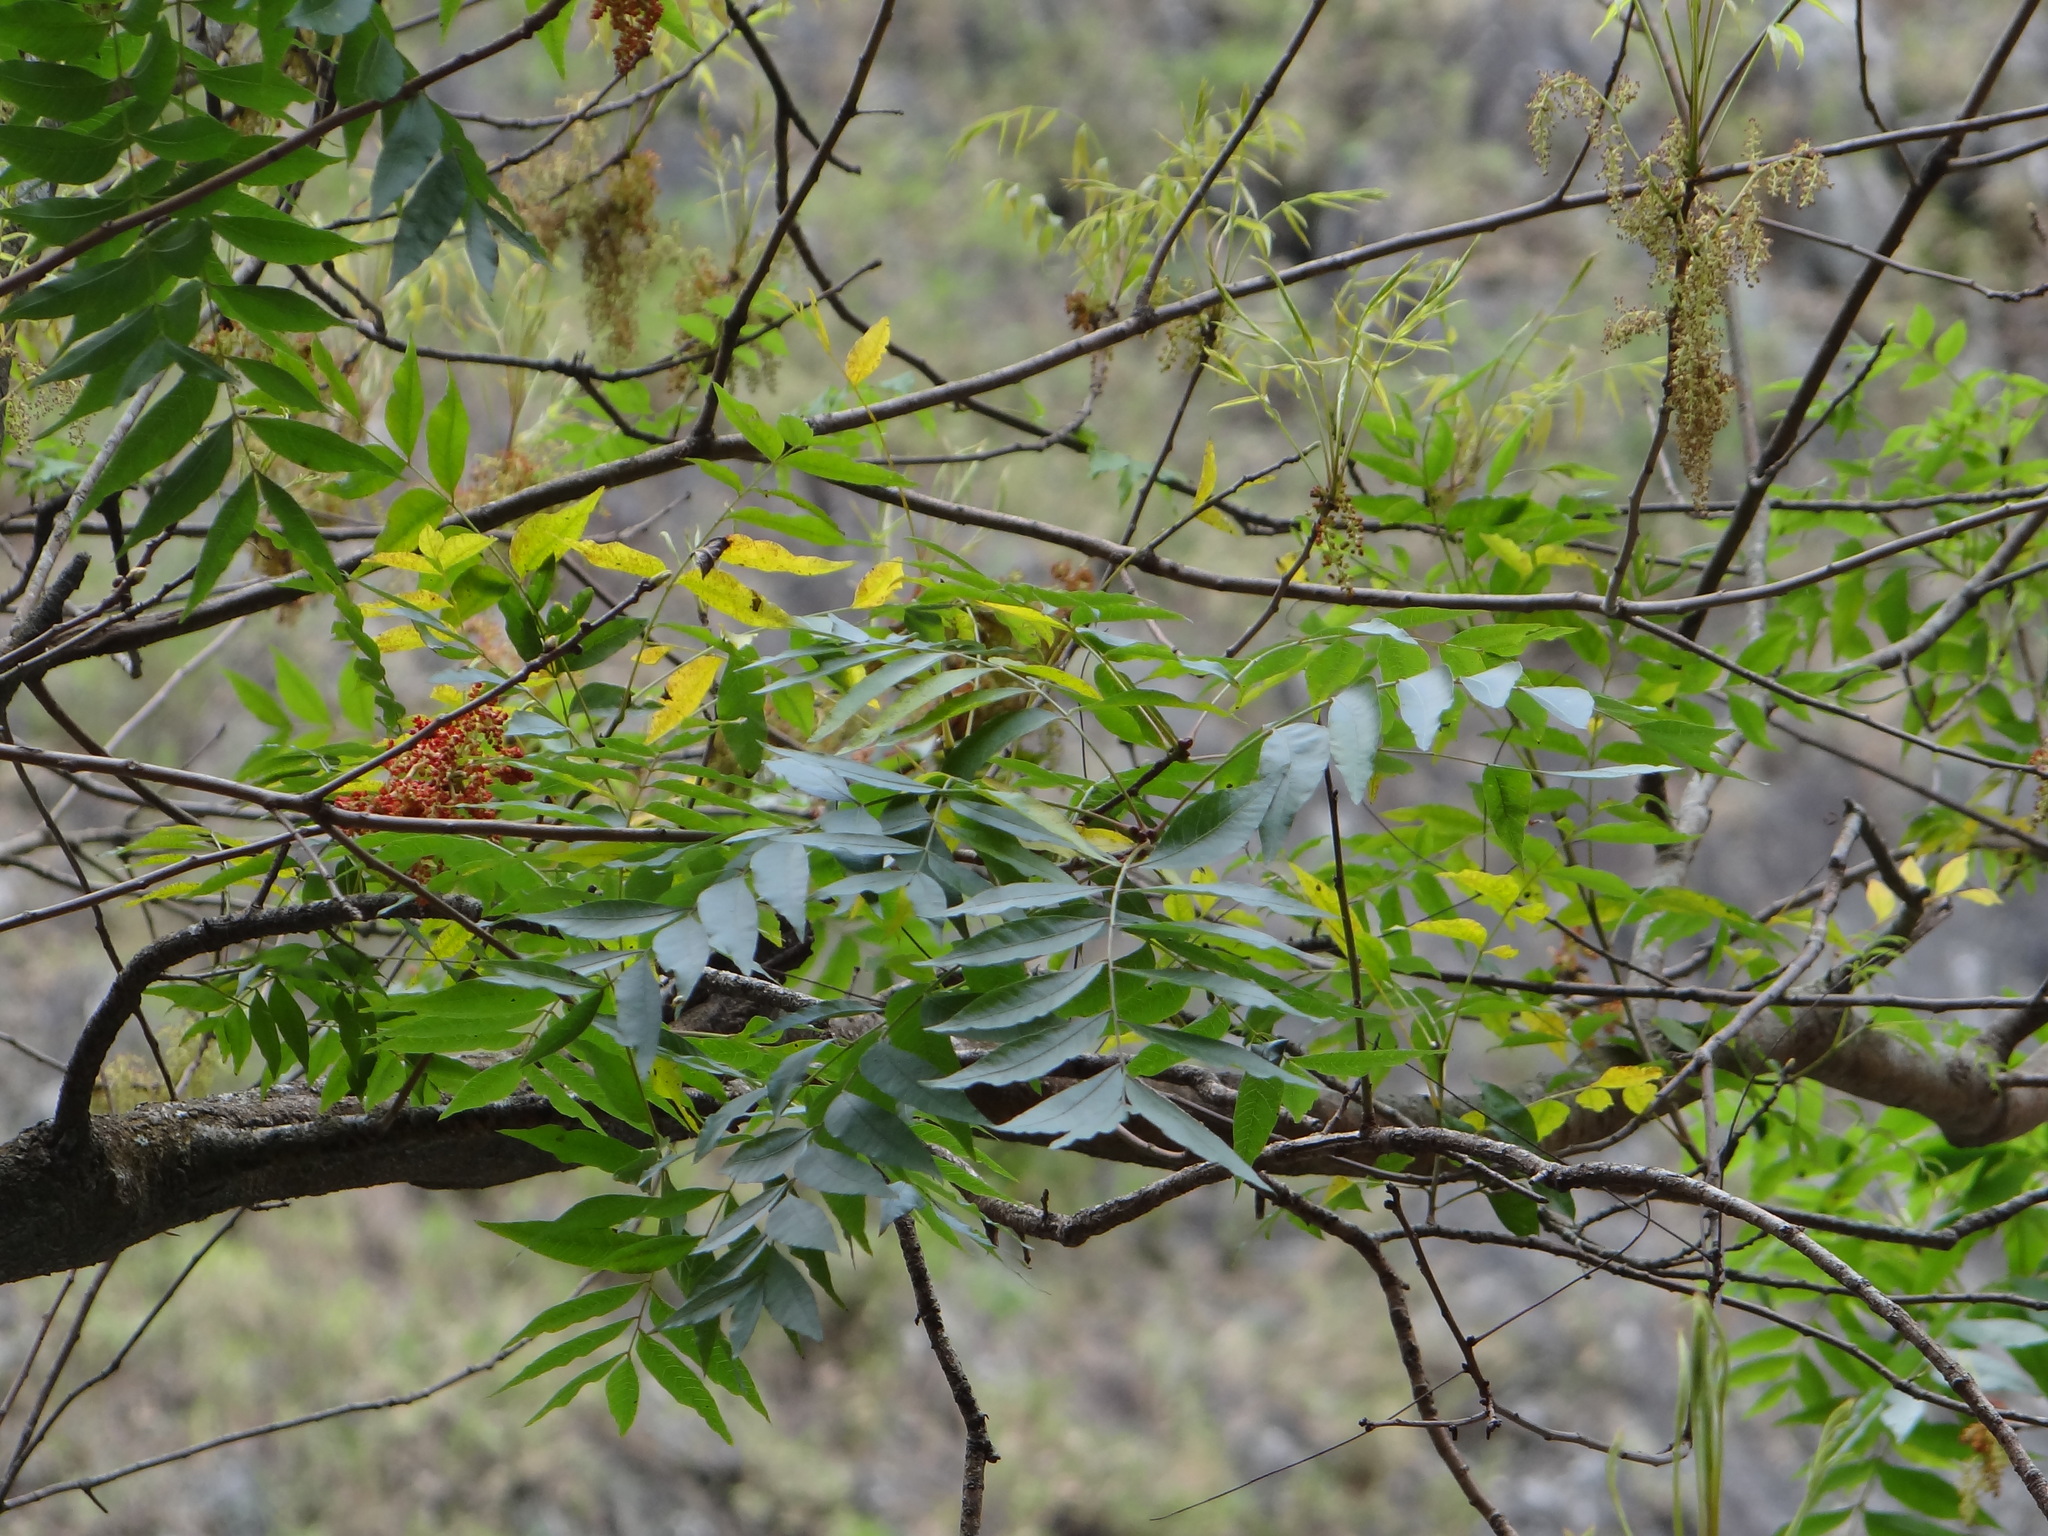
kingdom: Plantae
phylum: Tracheophyta
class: Magnoliopsida
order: Sapindales
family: Anacardiaceae
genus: Pistacia
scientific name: Pistacia chinensis
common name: Chinese pistache
